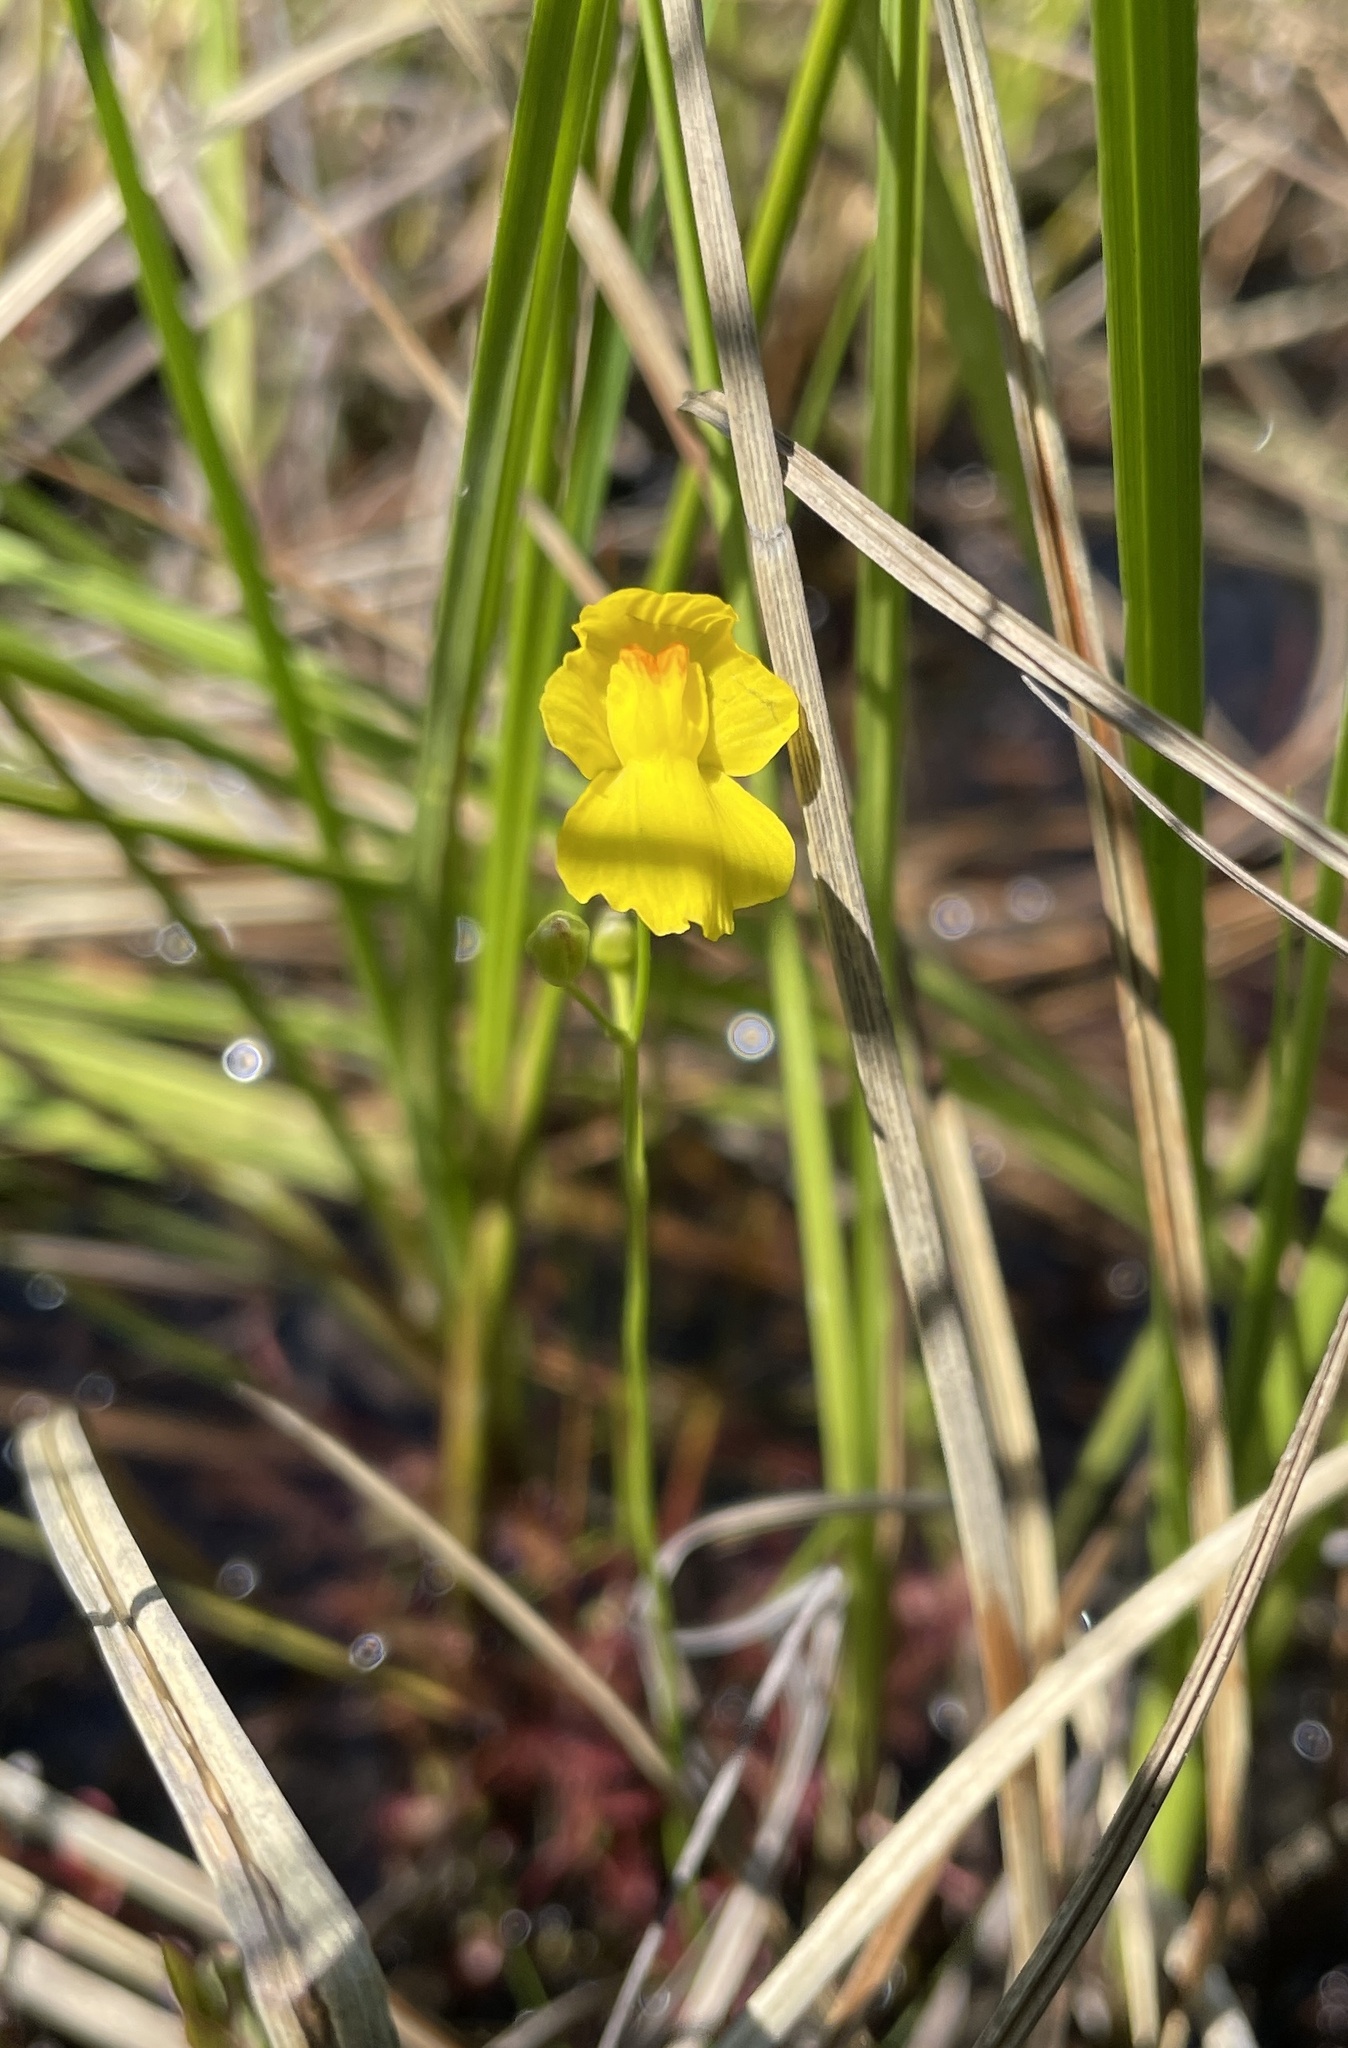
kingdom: Plantae
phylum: Tracheophyta
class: Magnoliopsida
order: Lamiales
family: Lentibulariaceae
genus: Utricularia
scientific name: Utricularia striata
